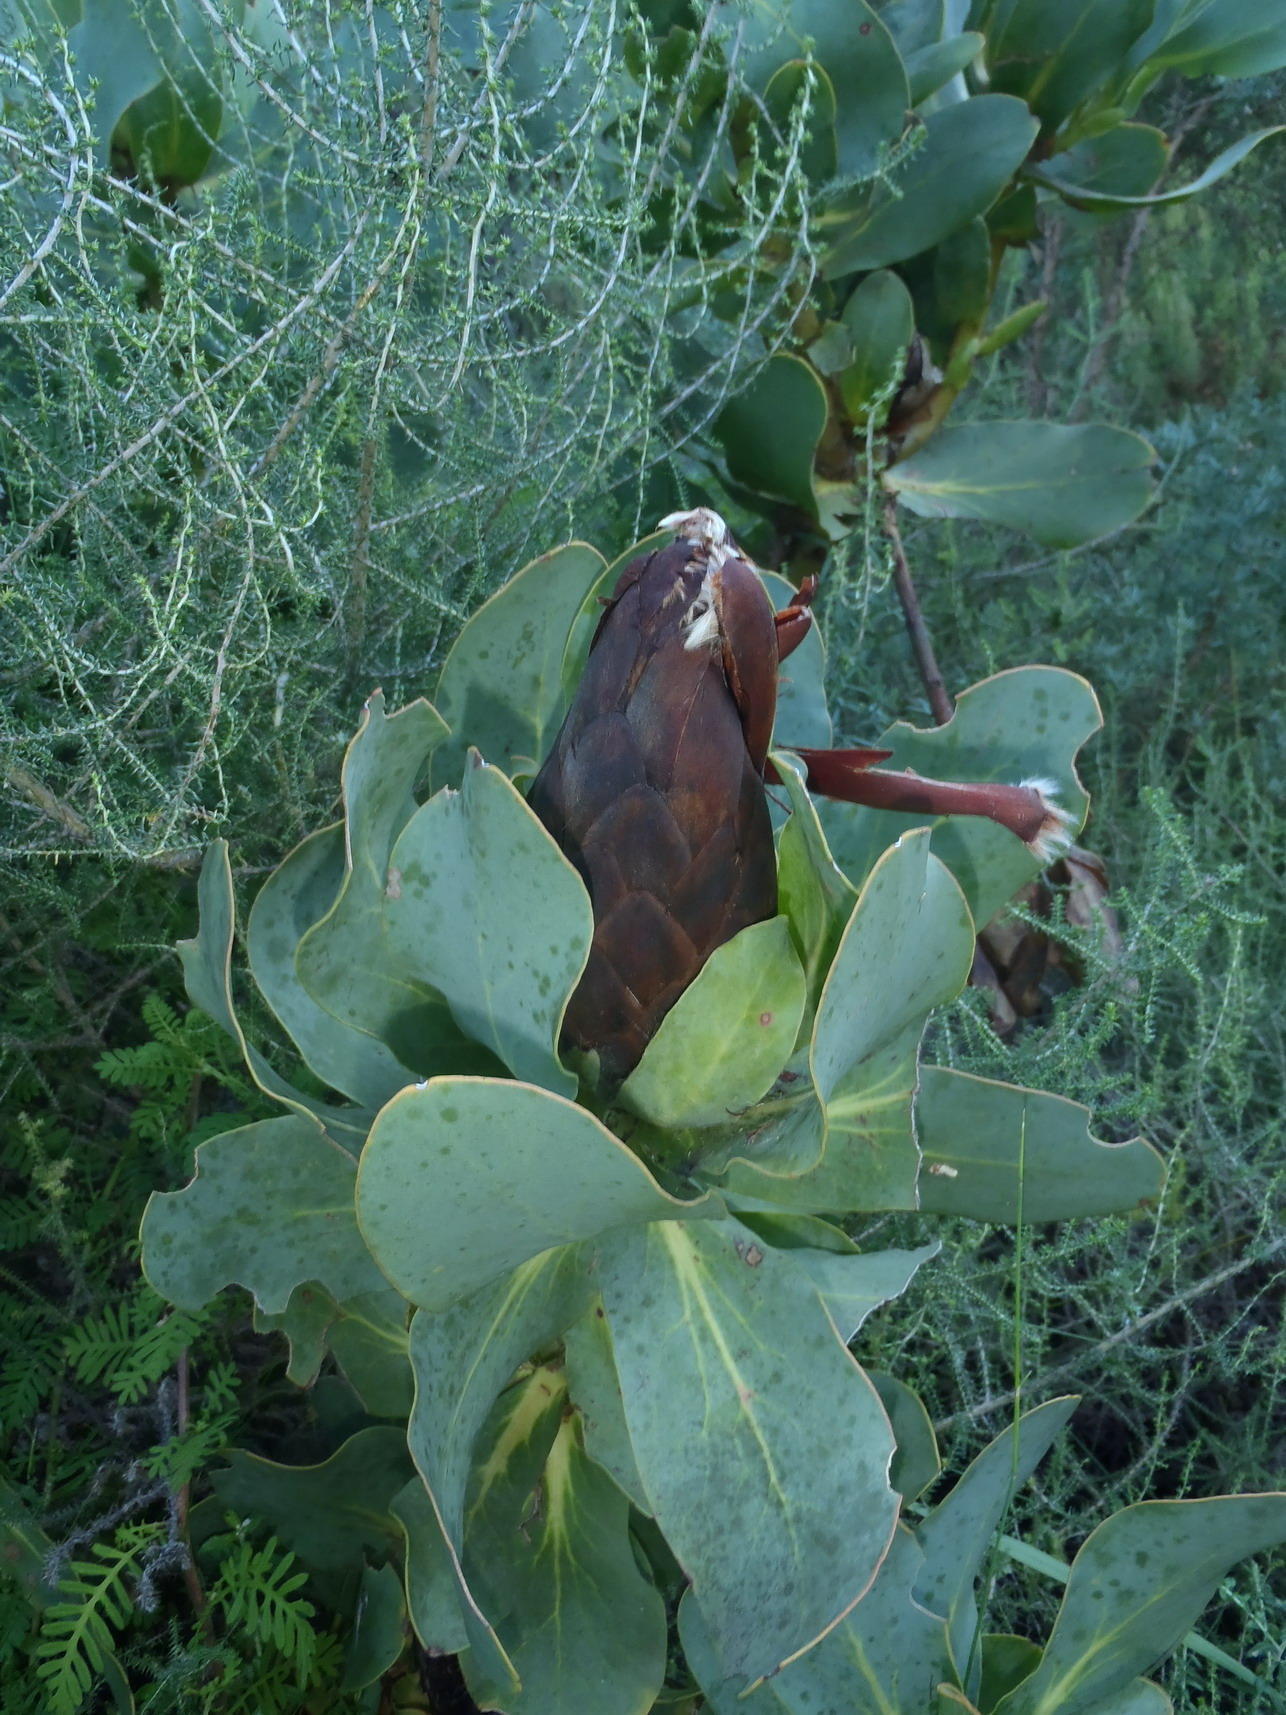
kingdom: Plantae
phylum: Tracheophyta
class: Magnoliopsida
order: Proteales
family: Proteaceae
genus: Protea
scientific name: Protea grandiceps
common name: Red sugarbush
